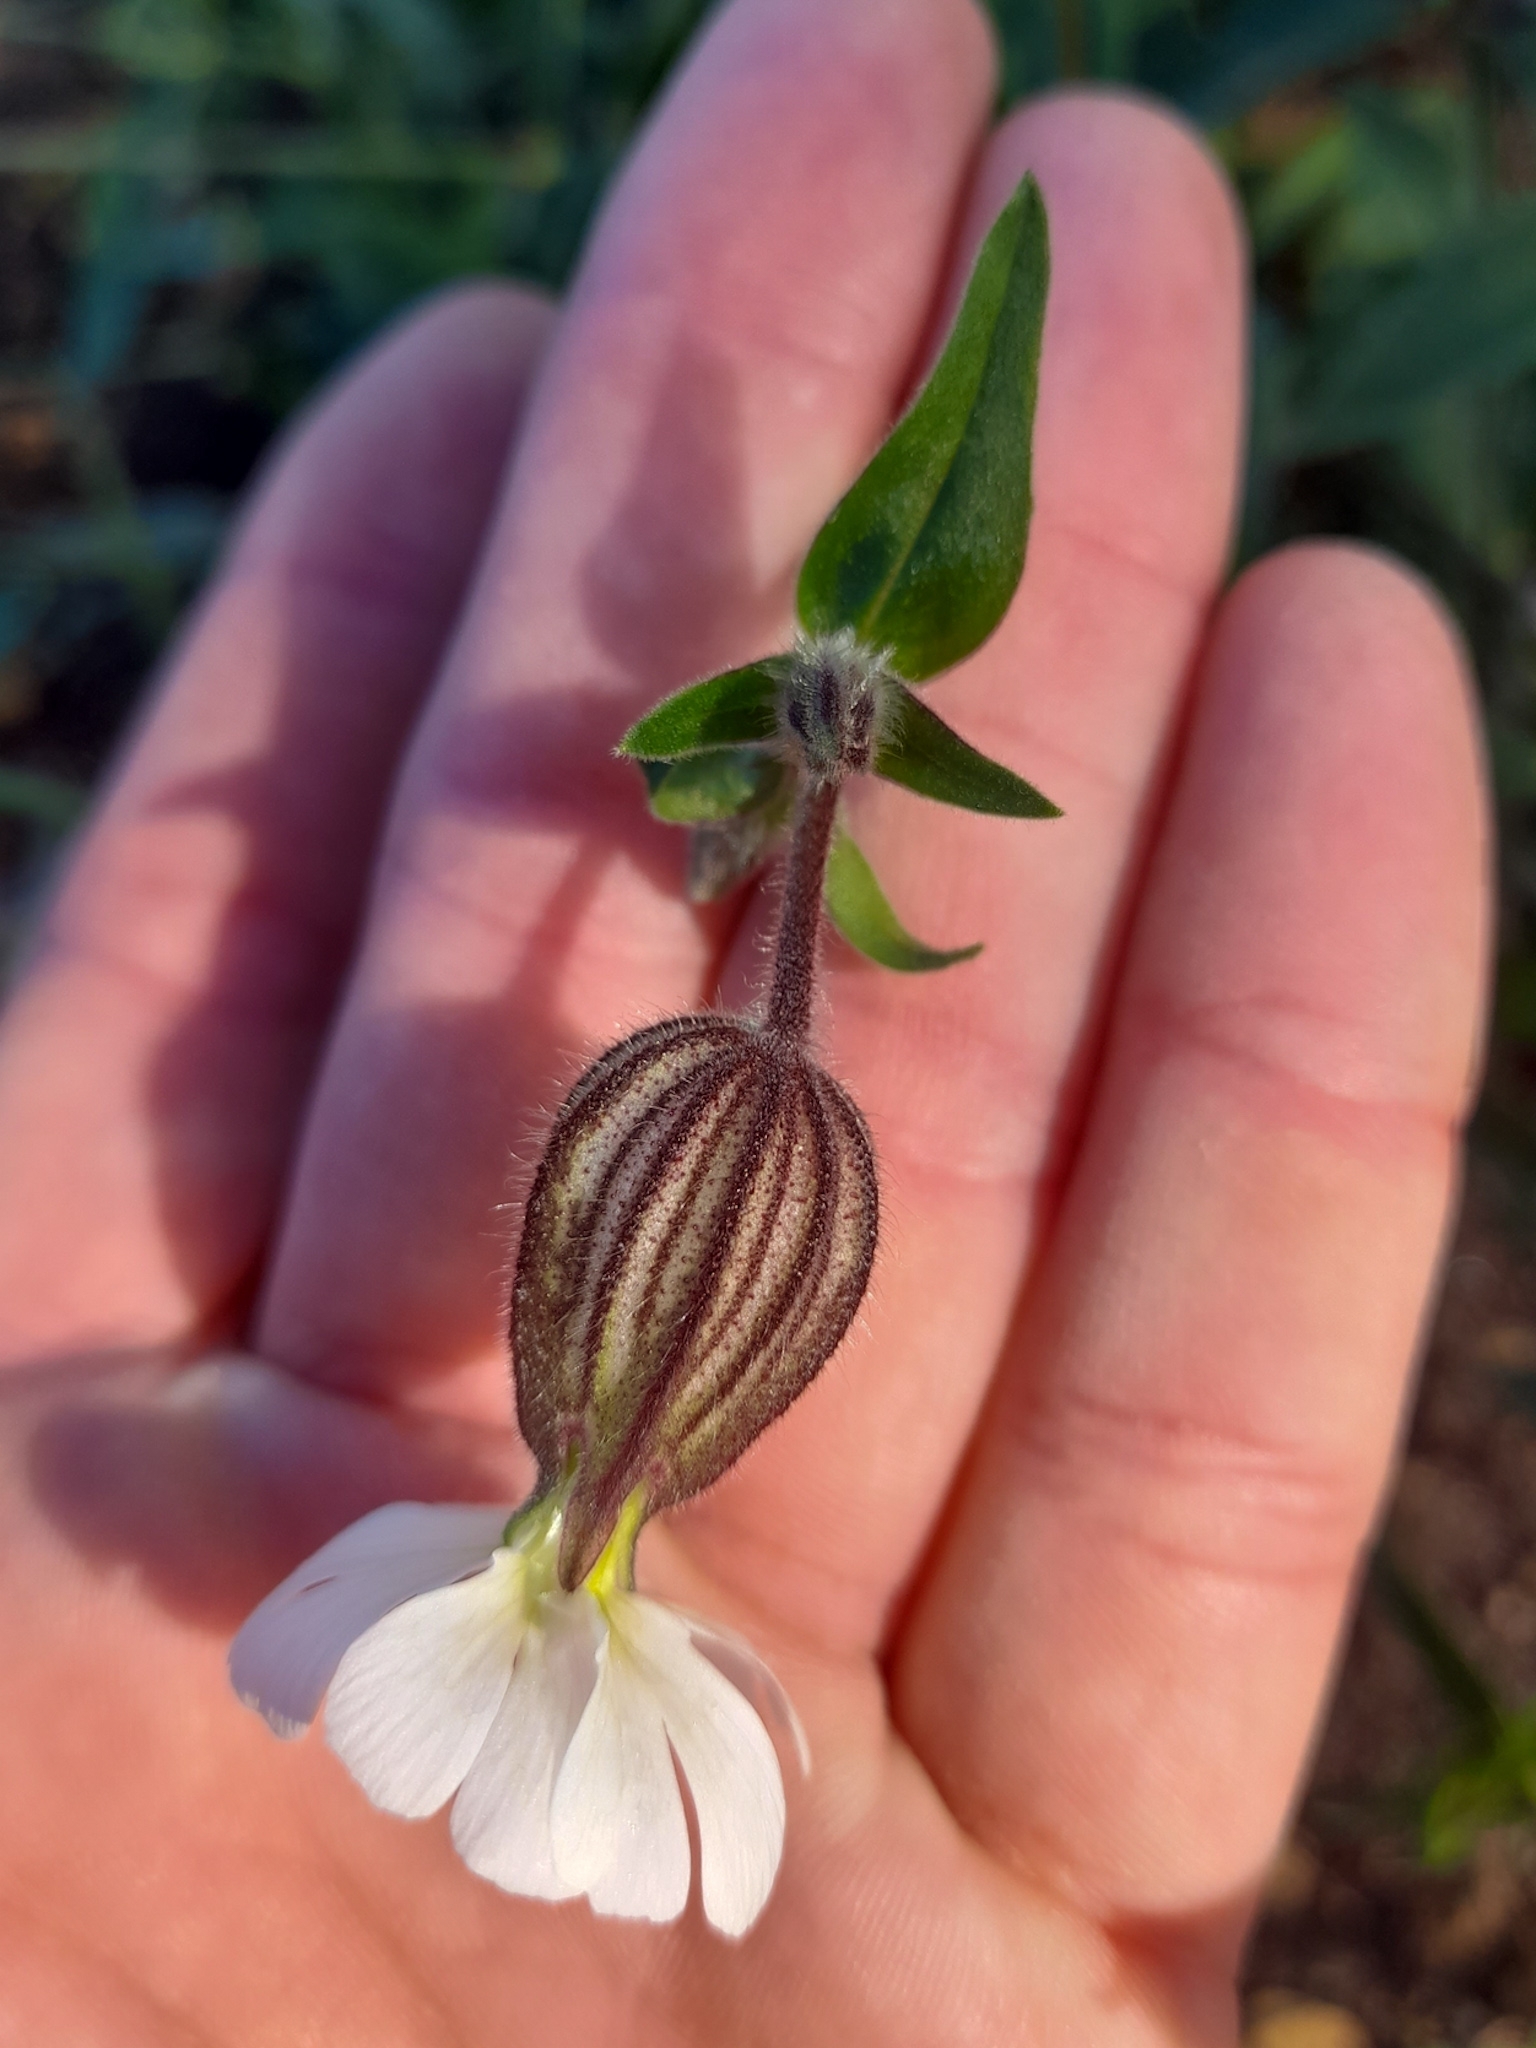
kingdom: Plantae
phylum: Tracheophyta
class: Magnoliopsida
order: Caryophyllales
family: Caryophyllaceae
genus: Silene
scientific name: Silene latifolia
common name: White campion
